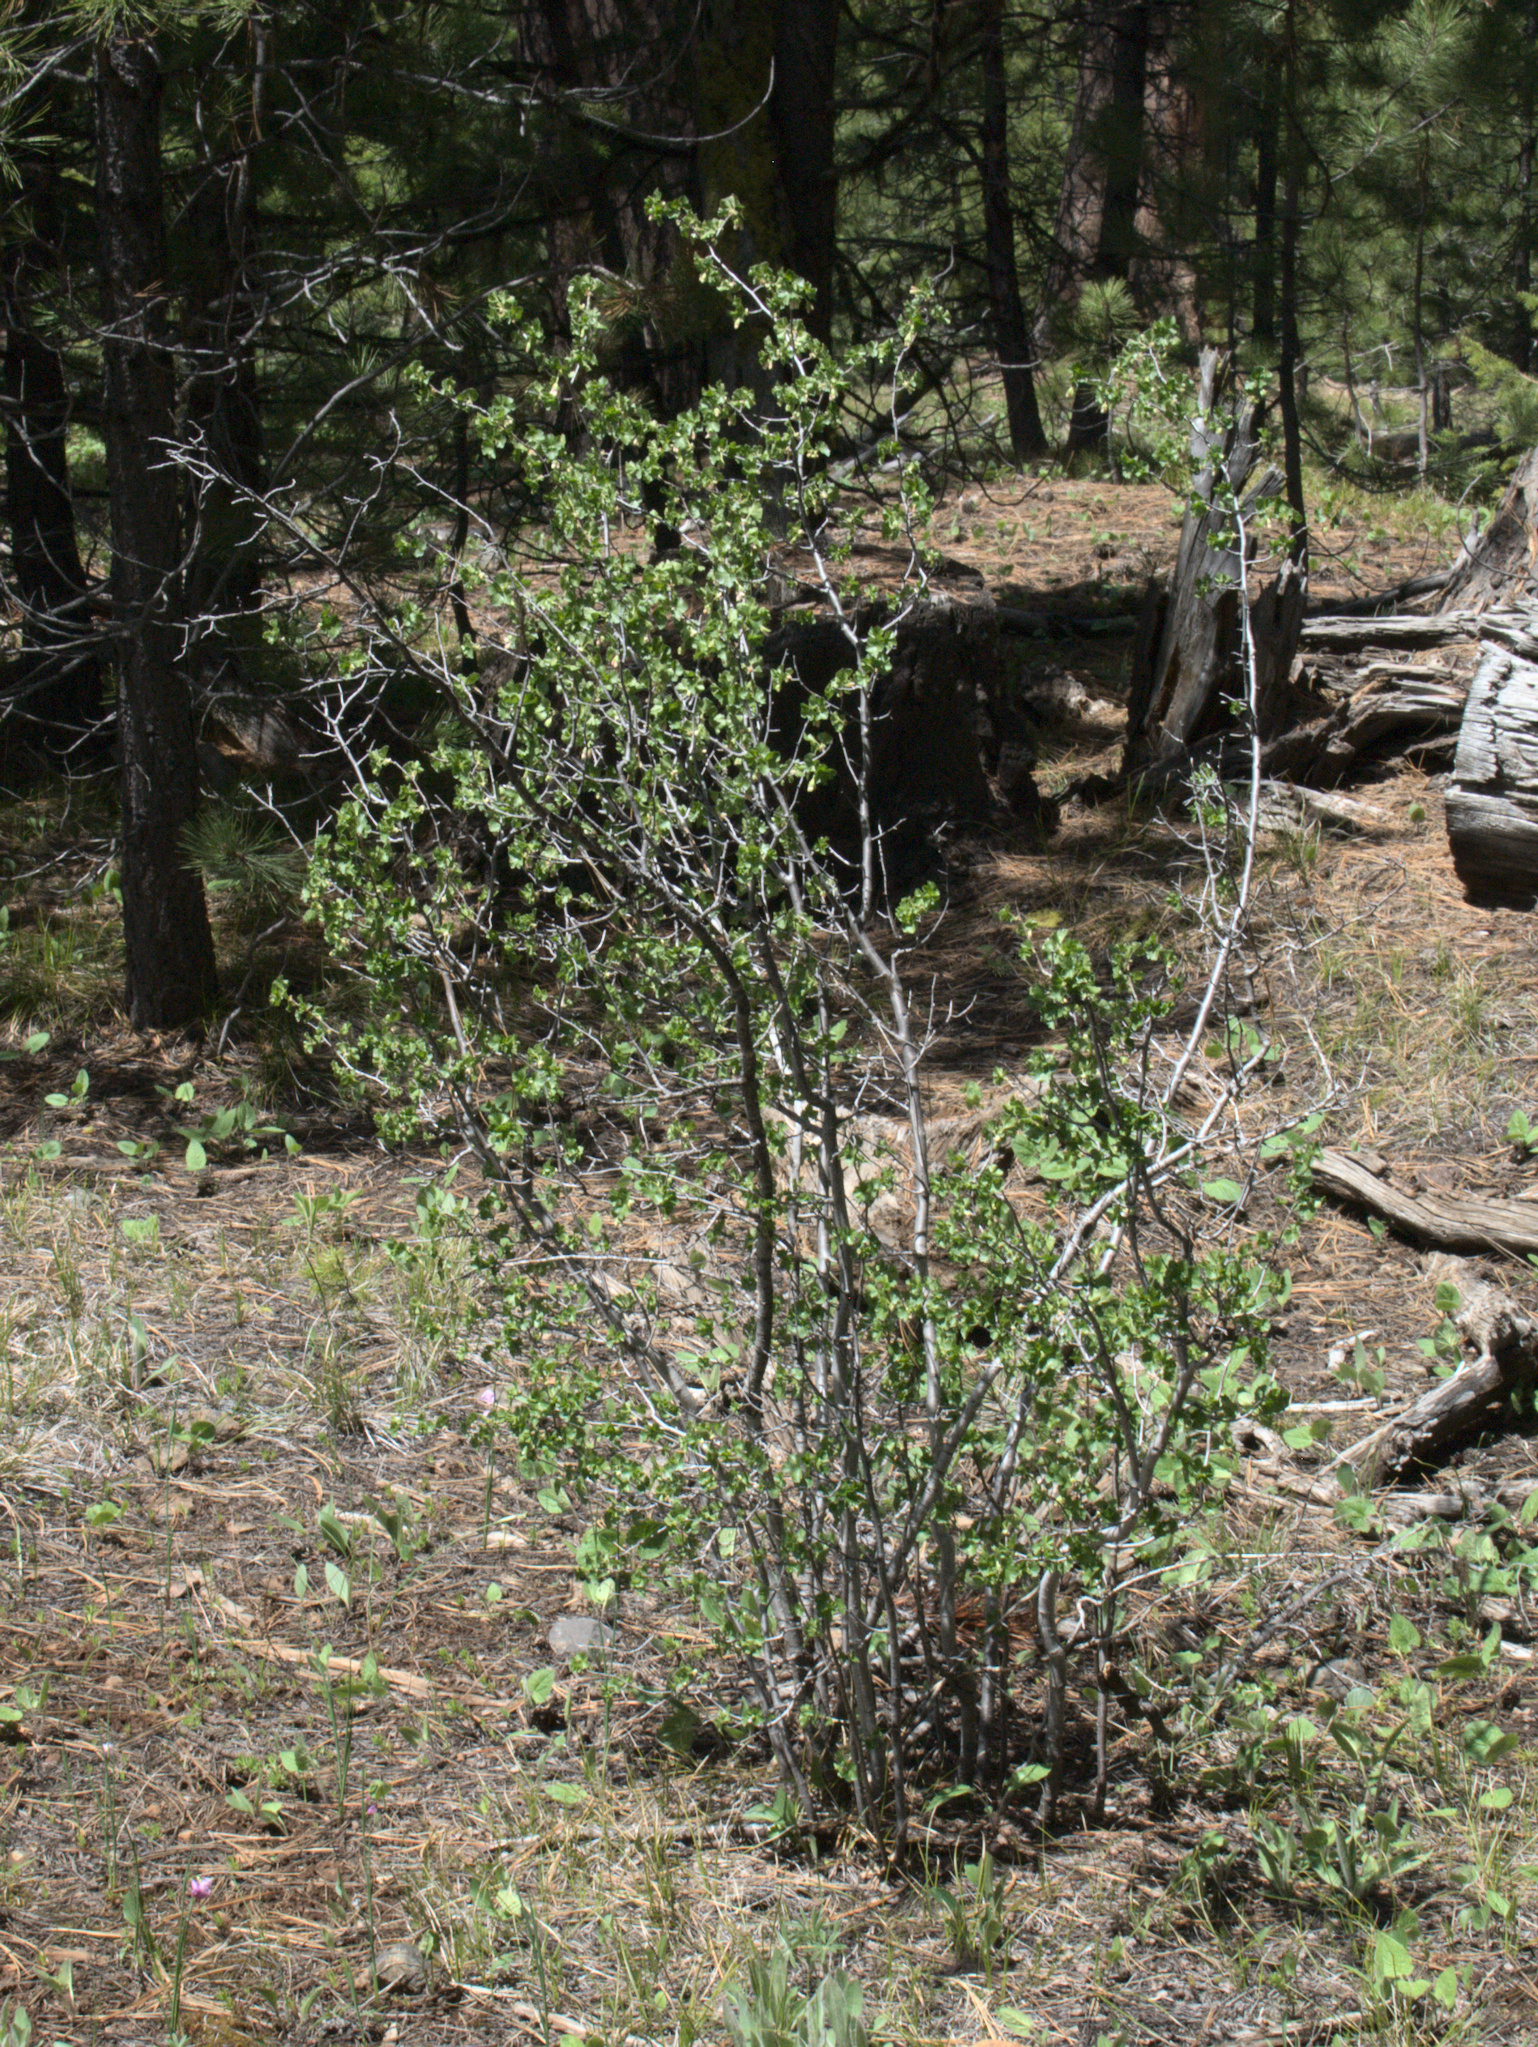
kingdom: Plantae
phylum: Tracheophyta
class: Magnoliopsida
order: Saxifragales
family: Grossulariaceae
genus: Ribes
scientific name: Ribes cereum
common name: Wax currant
